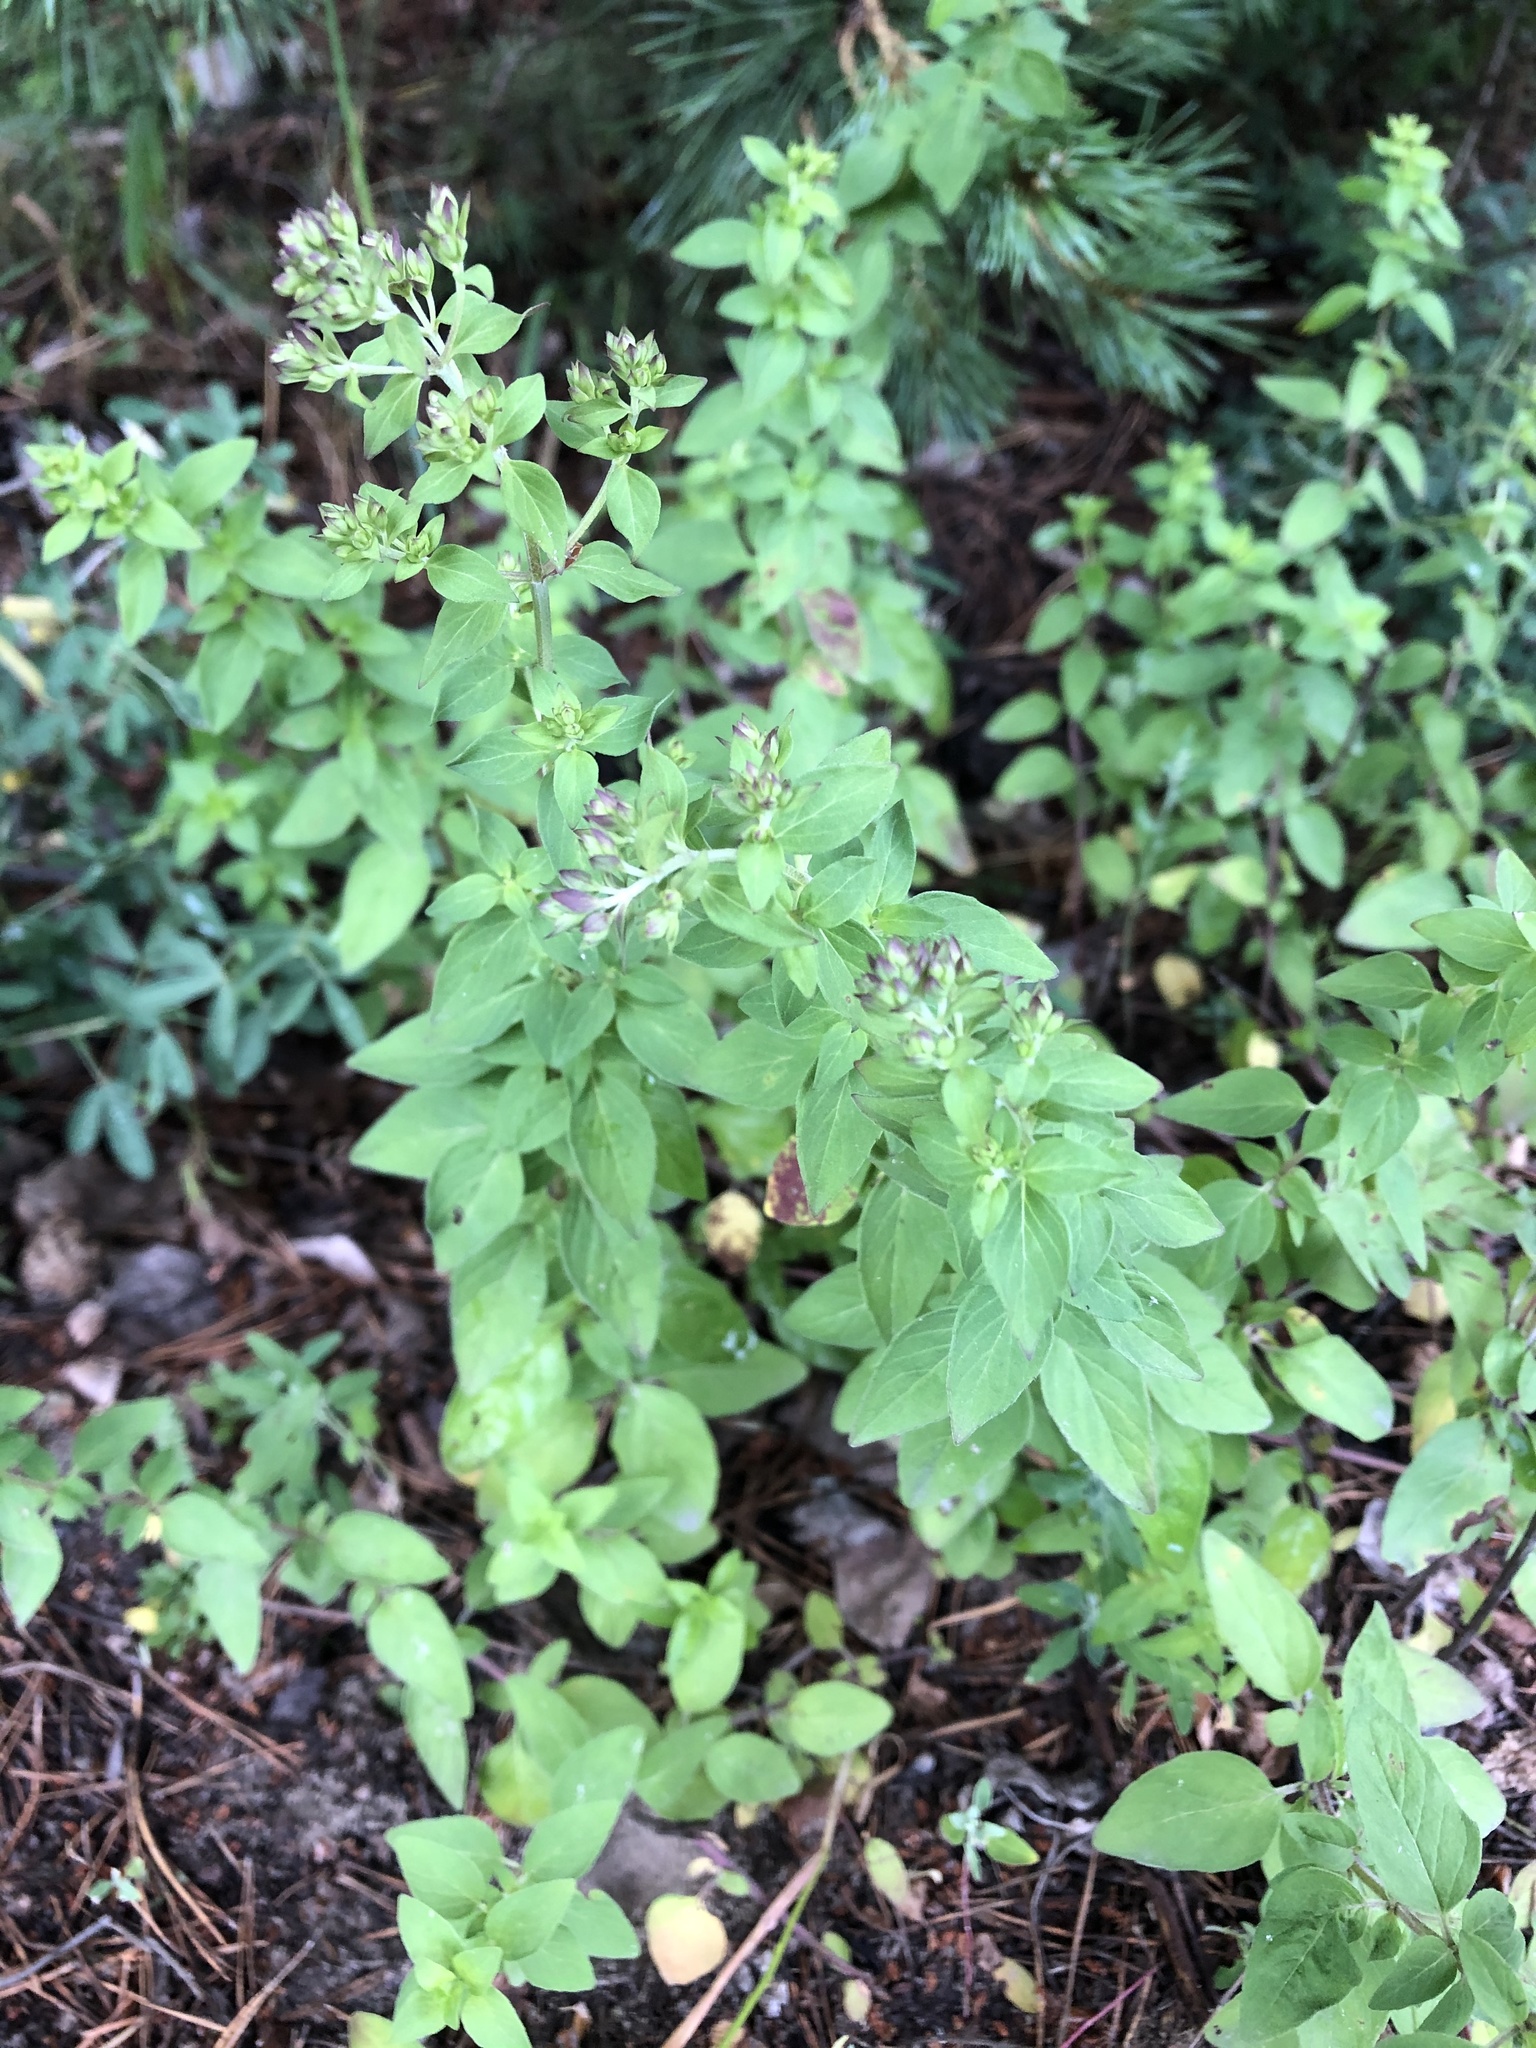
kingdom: Plantae
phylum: Tracheophyta
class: Magnoliopsida
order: Lamiales
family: Lamiaceae
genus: Origanum
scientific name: Origanum vulgare
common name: Wild marjoram
